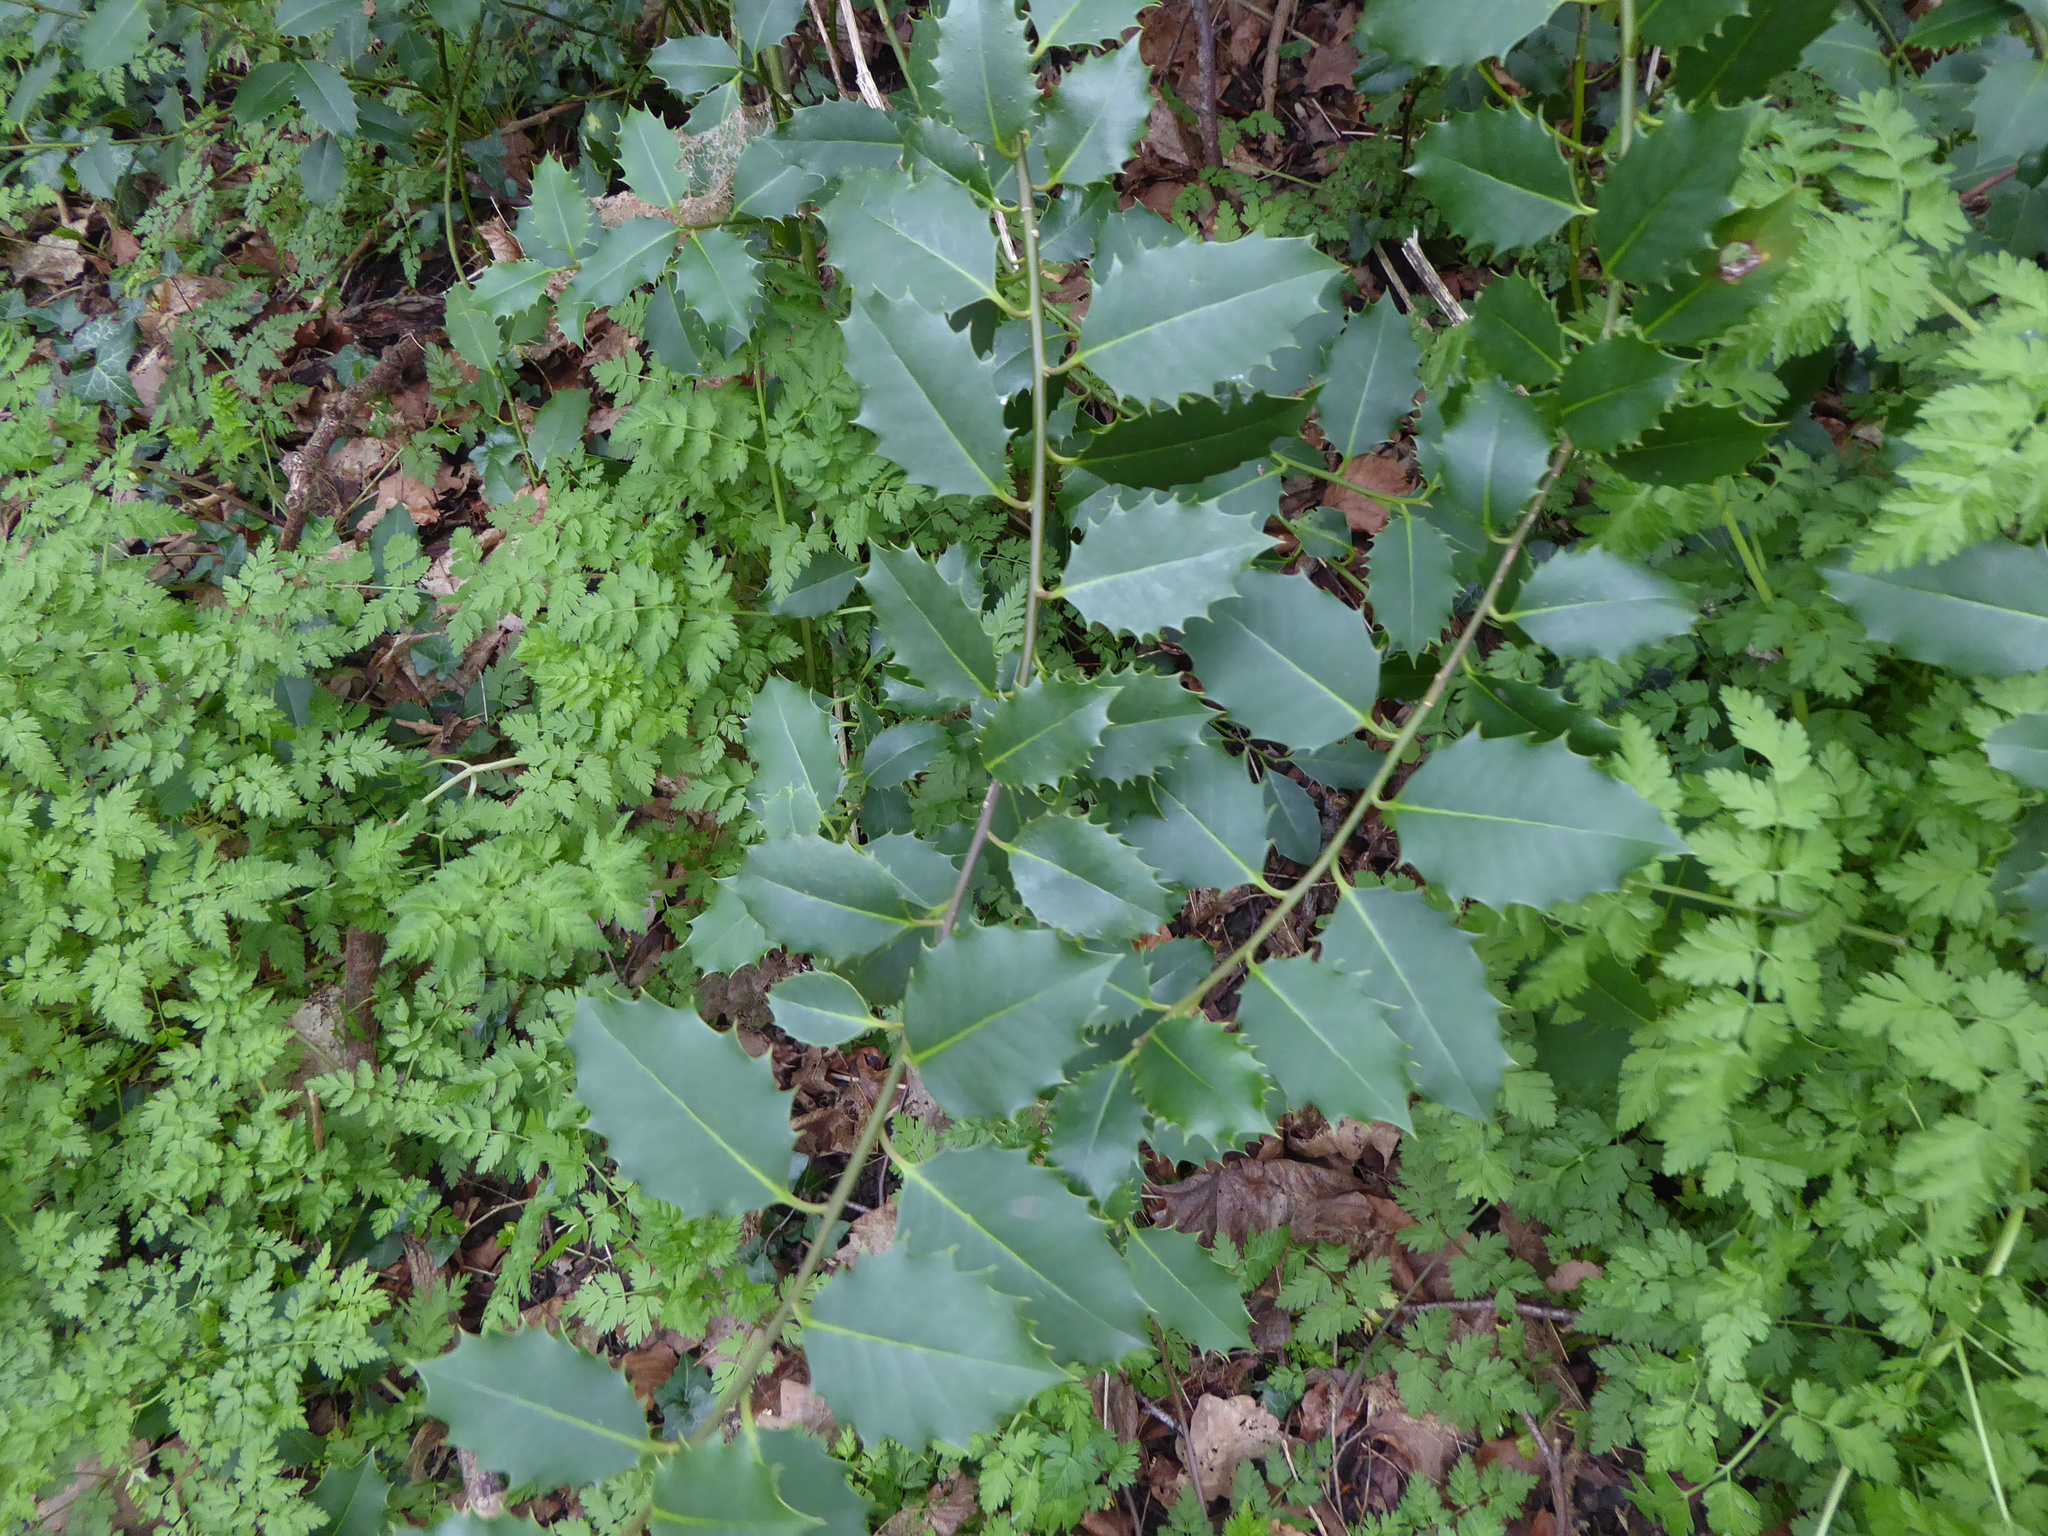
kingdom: Plantae
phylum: Tracheophyta
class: Magnoliopsida
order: Aquifoliales
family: Aquifoliaceae
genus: Ilex
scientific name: Ilex aquifolium
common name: English holly
